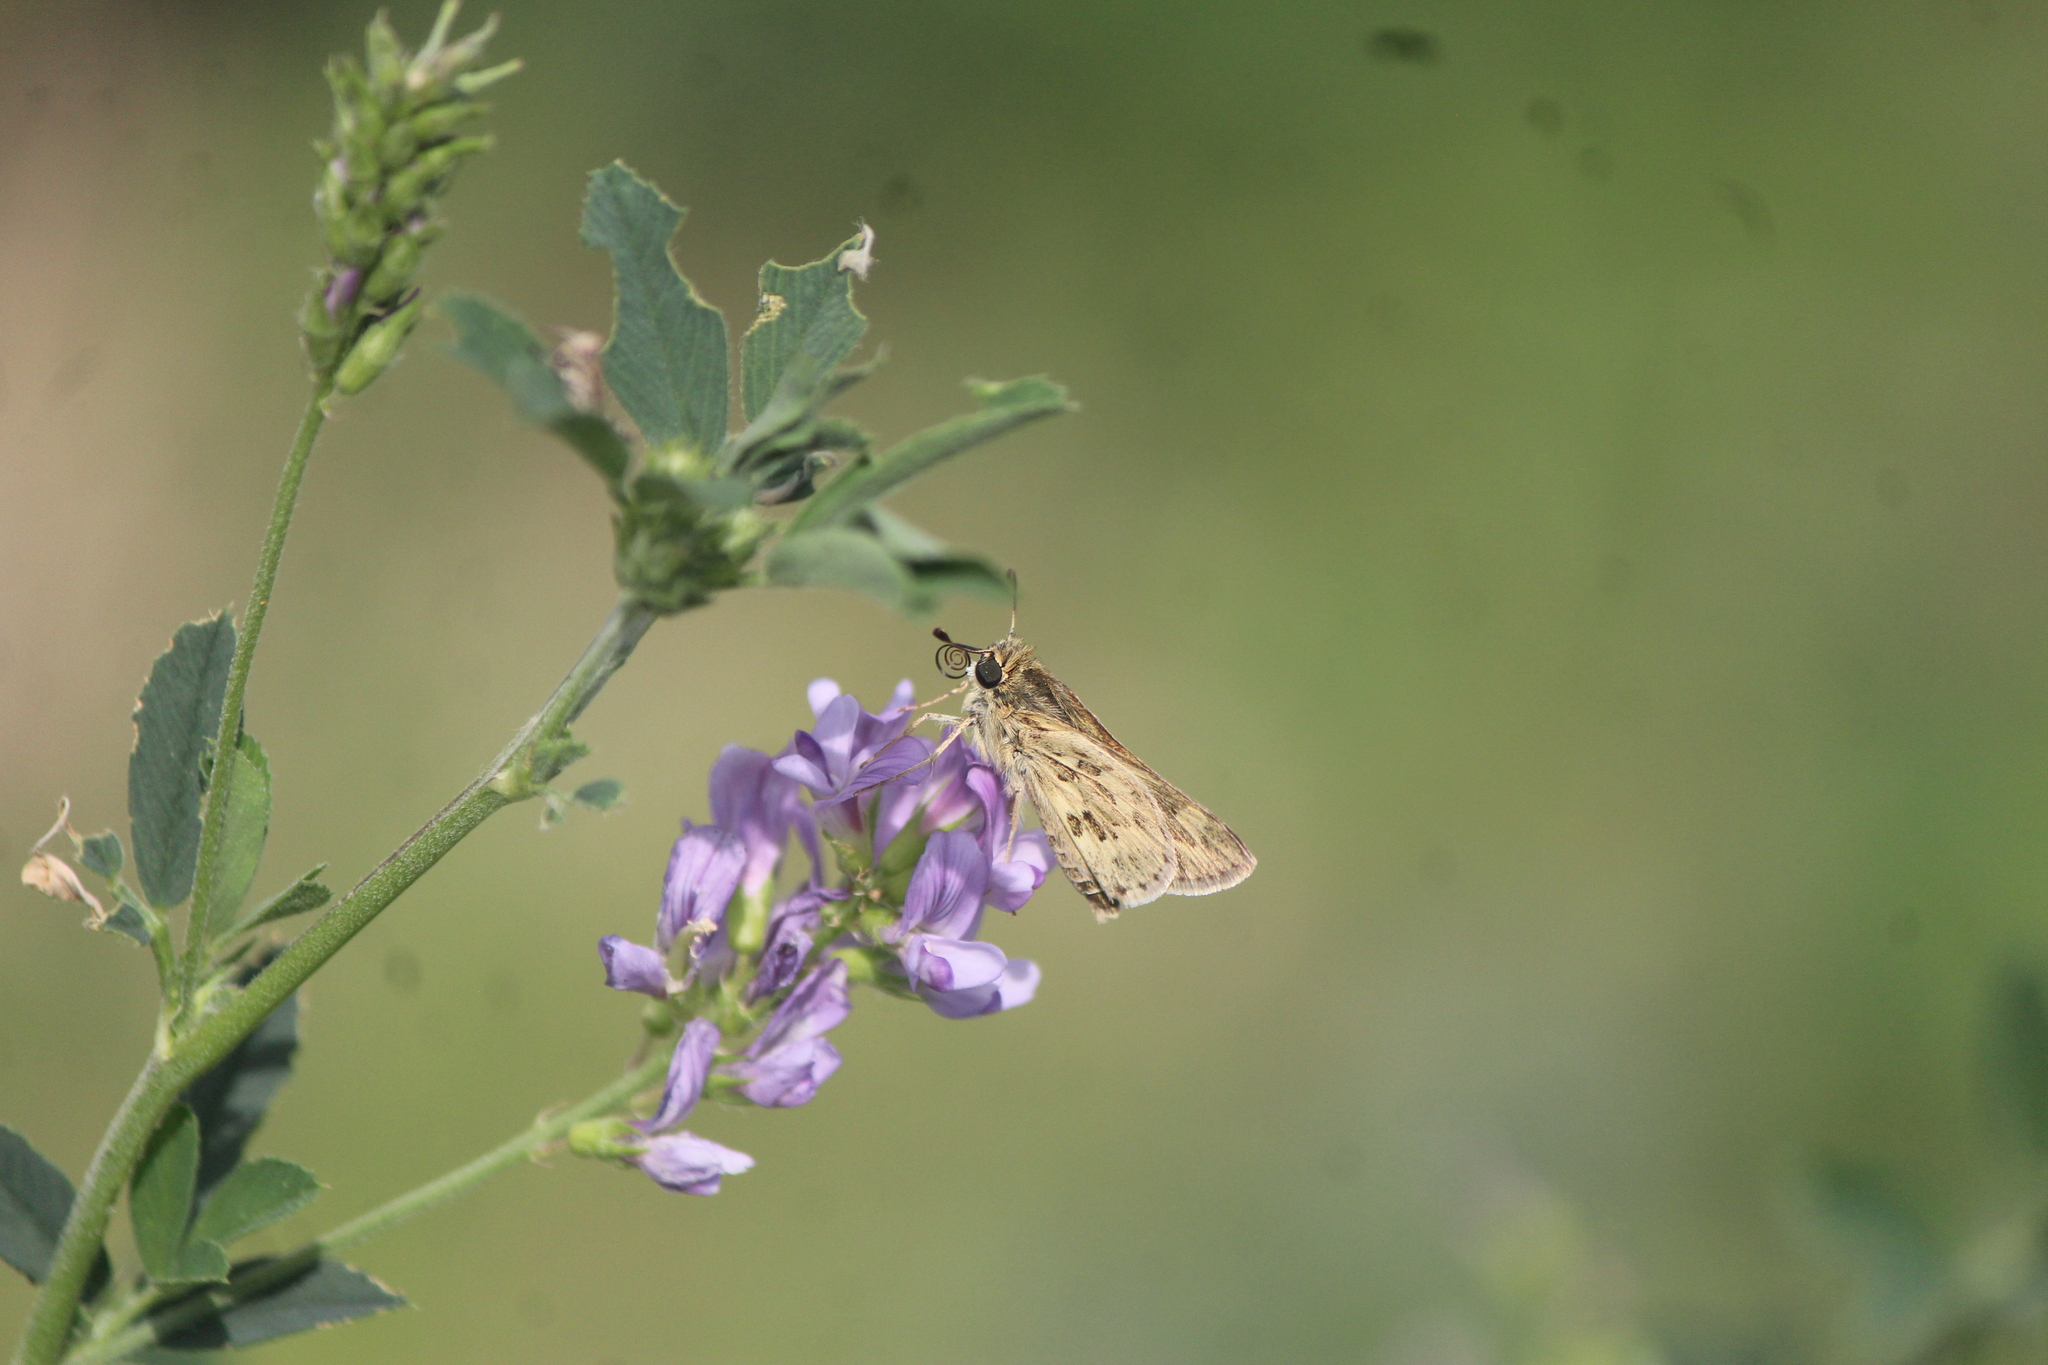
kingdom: Animalia
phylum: Arthropoda
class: Insecta
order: Lepidoptera
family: Hesperiidae
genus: Yvretta
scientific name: Yvretta carus
